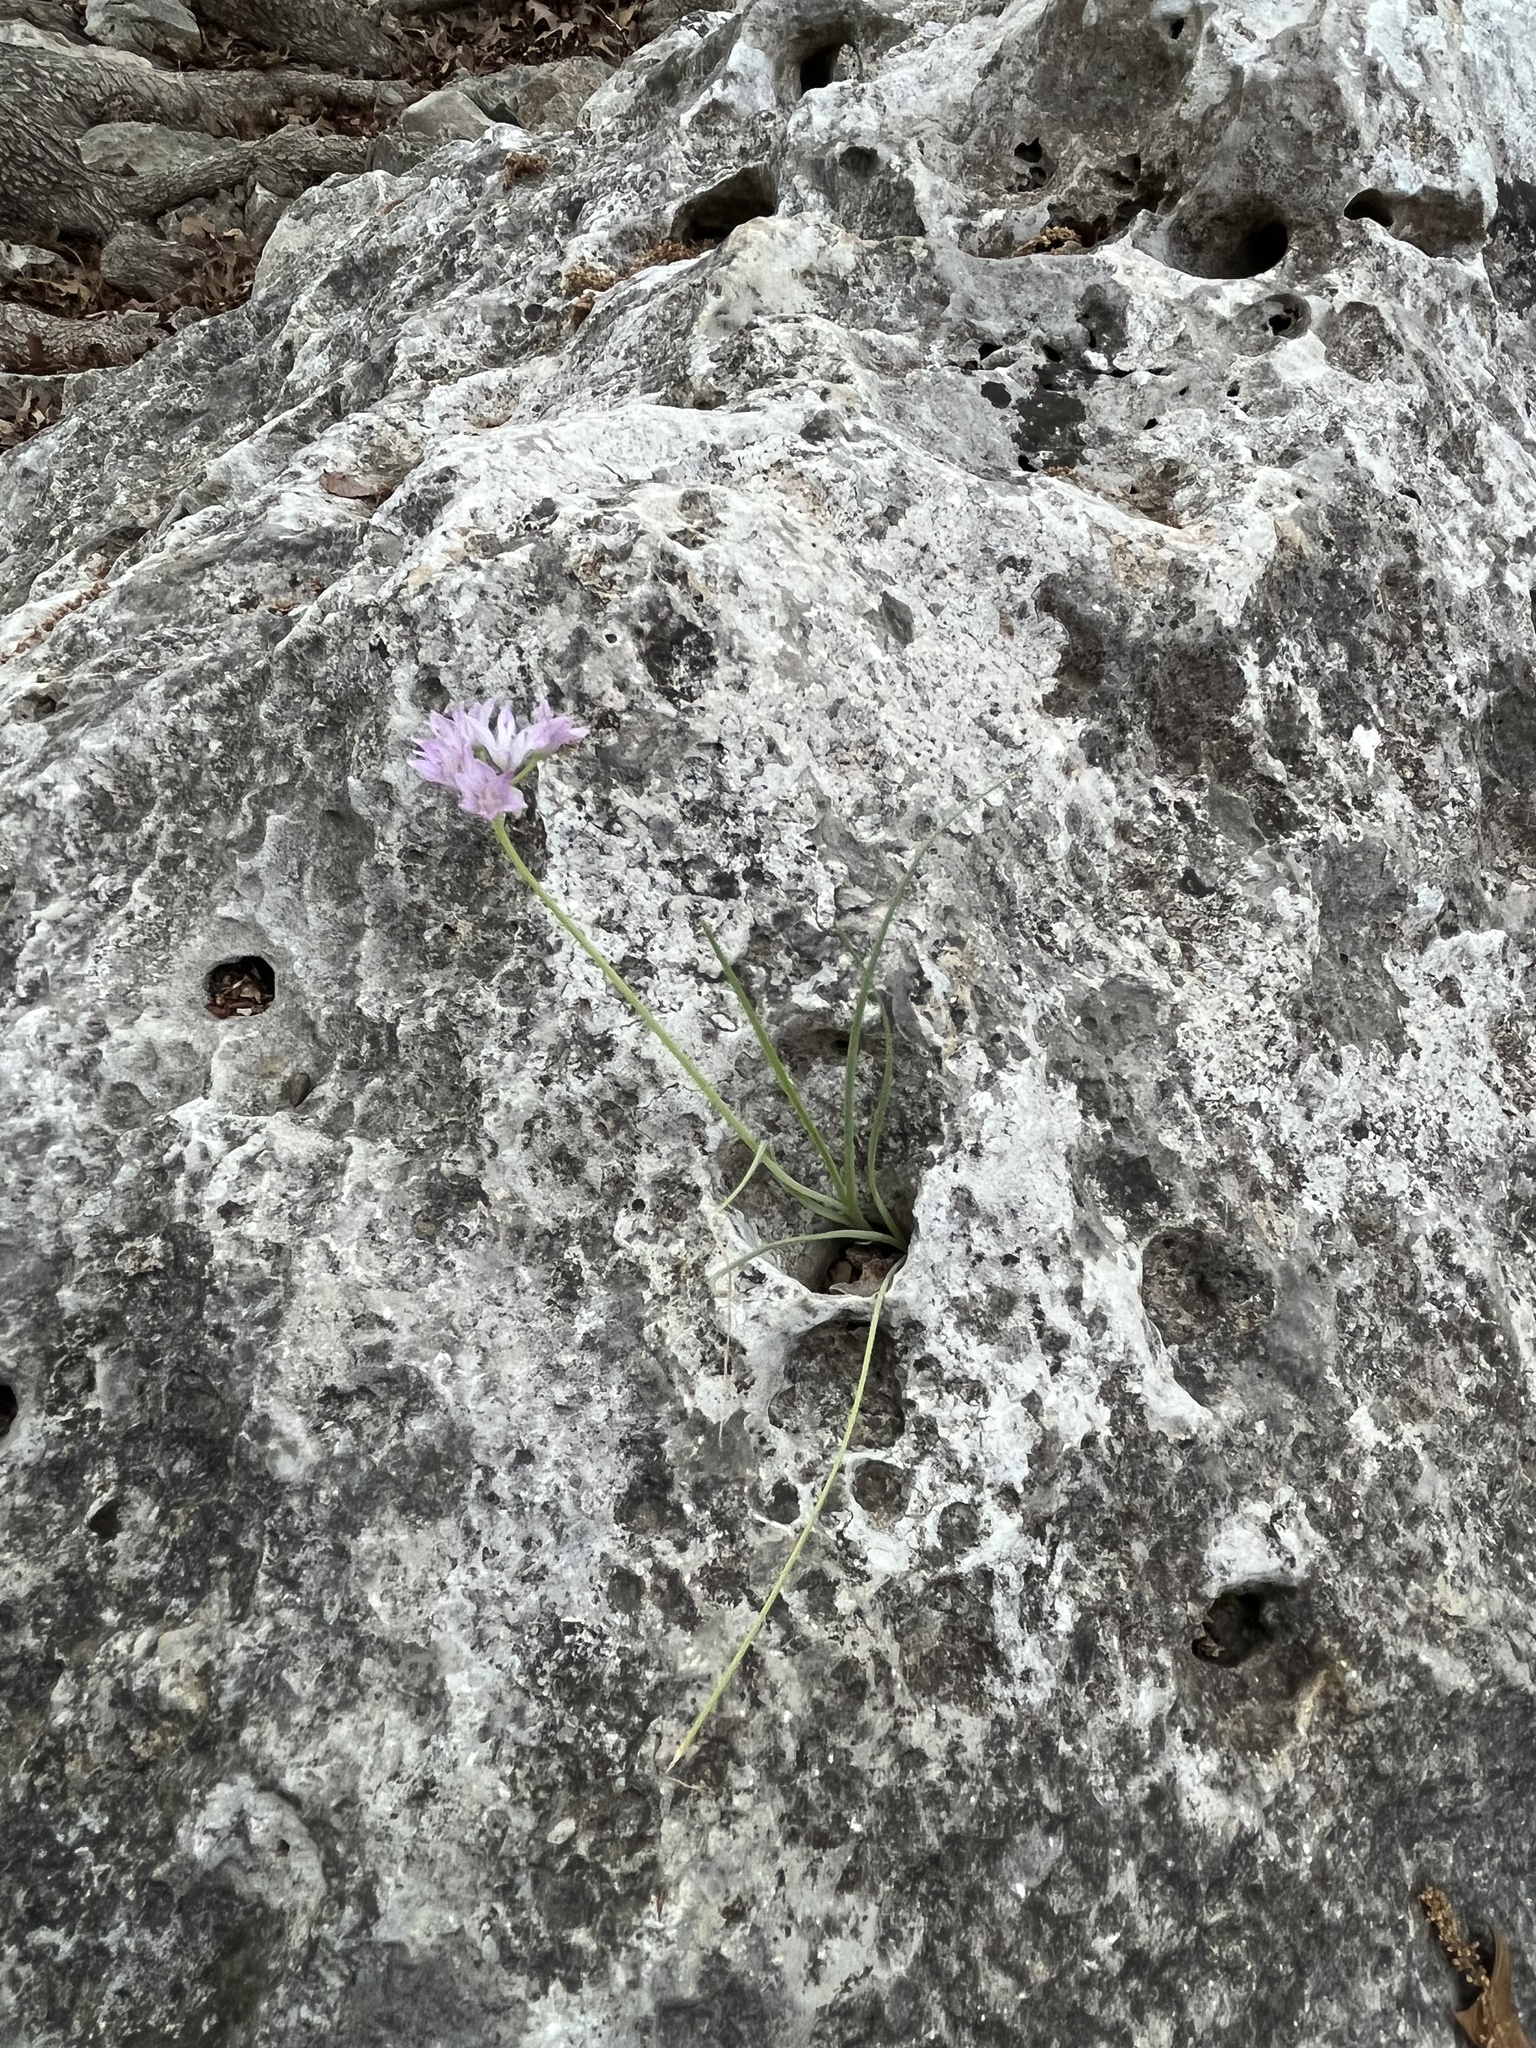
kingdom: Plantae
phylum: Tracheophyta
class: Liliopsida
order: Asparagales
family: Amaryllidaceae
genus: Allium
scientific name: Allium drummondii
